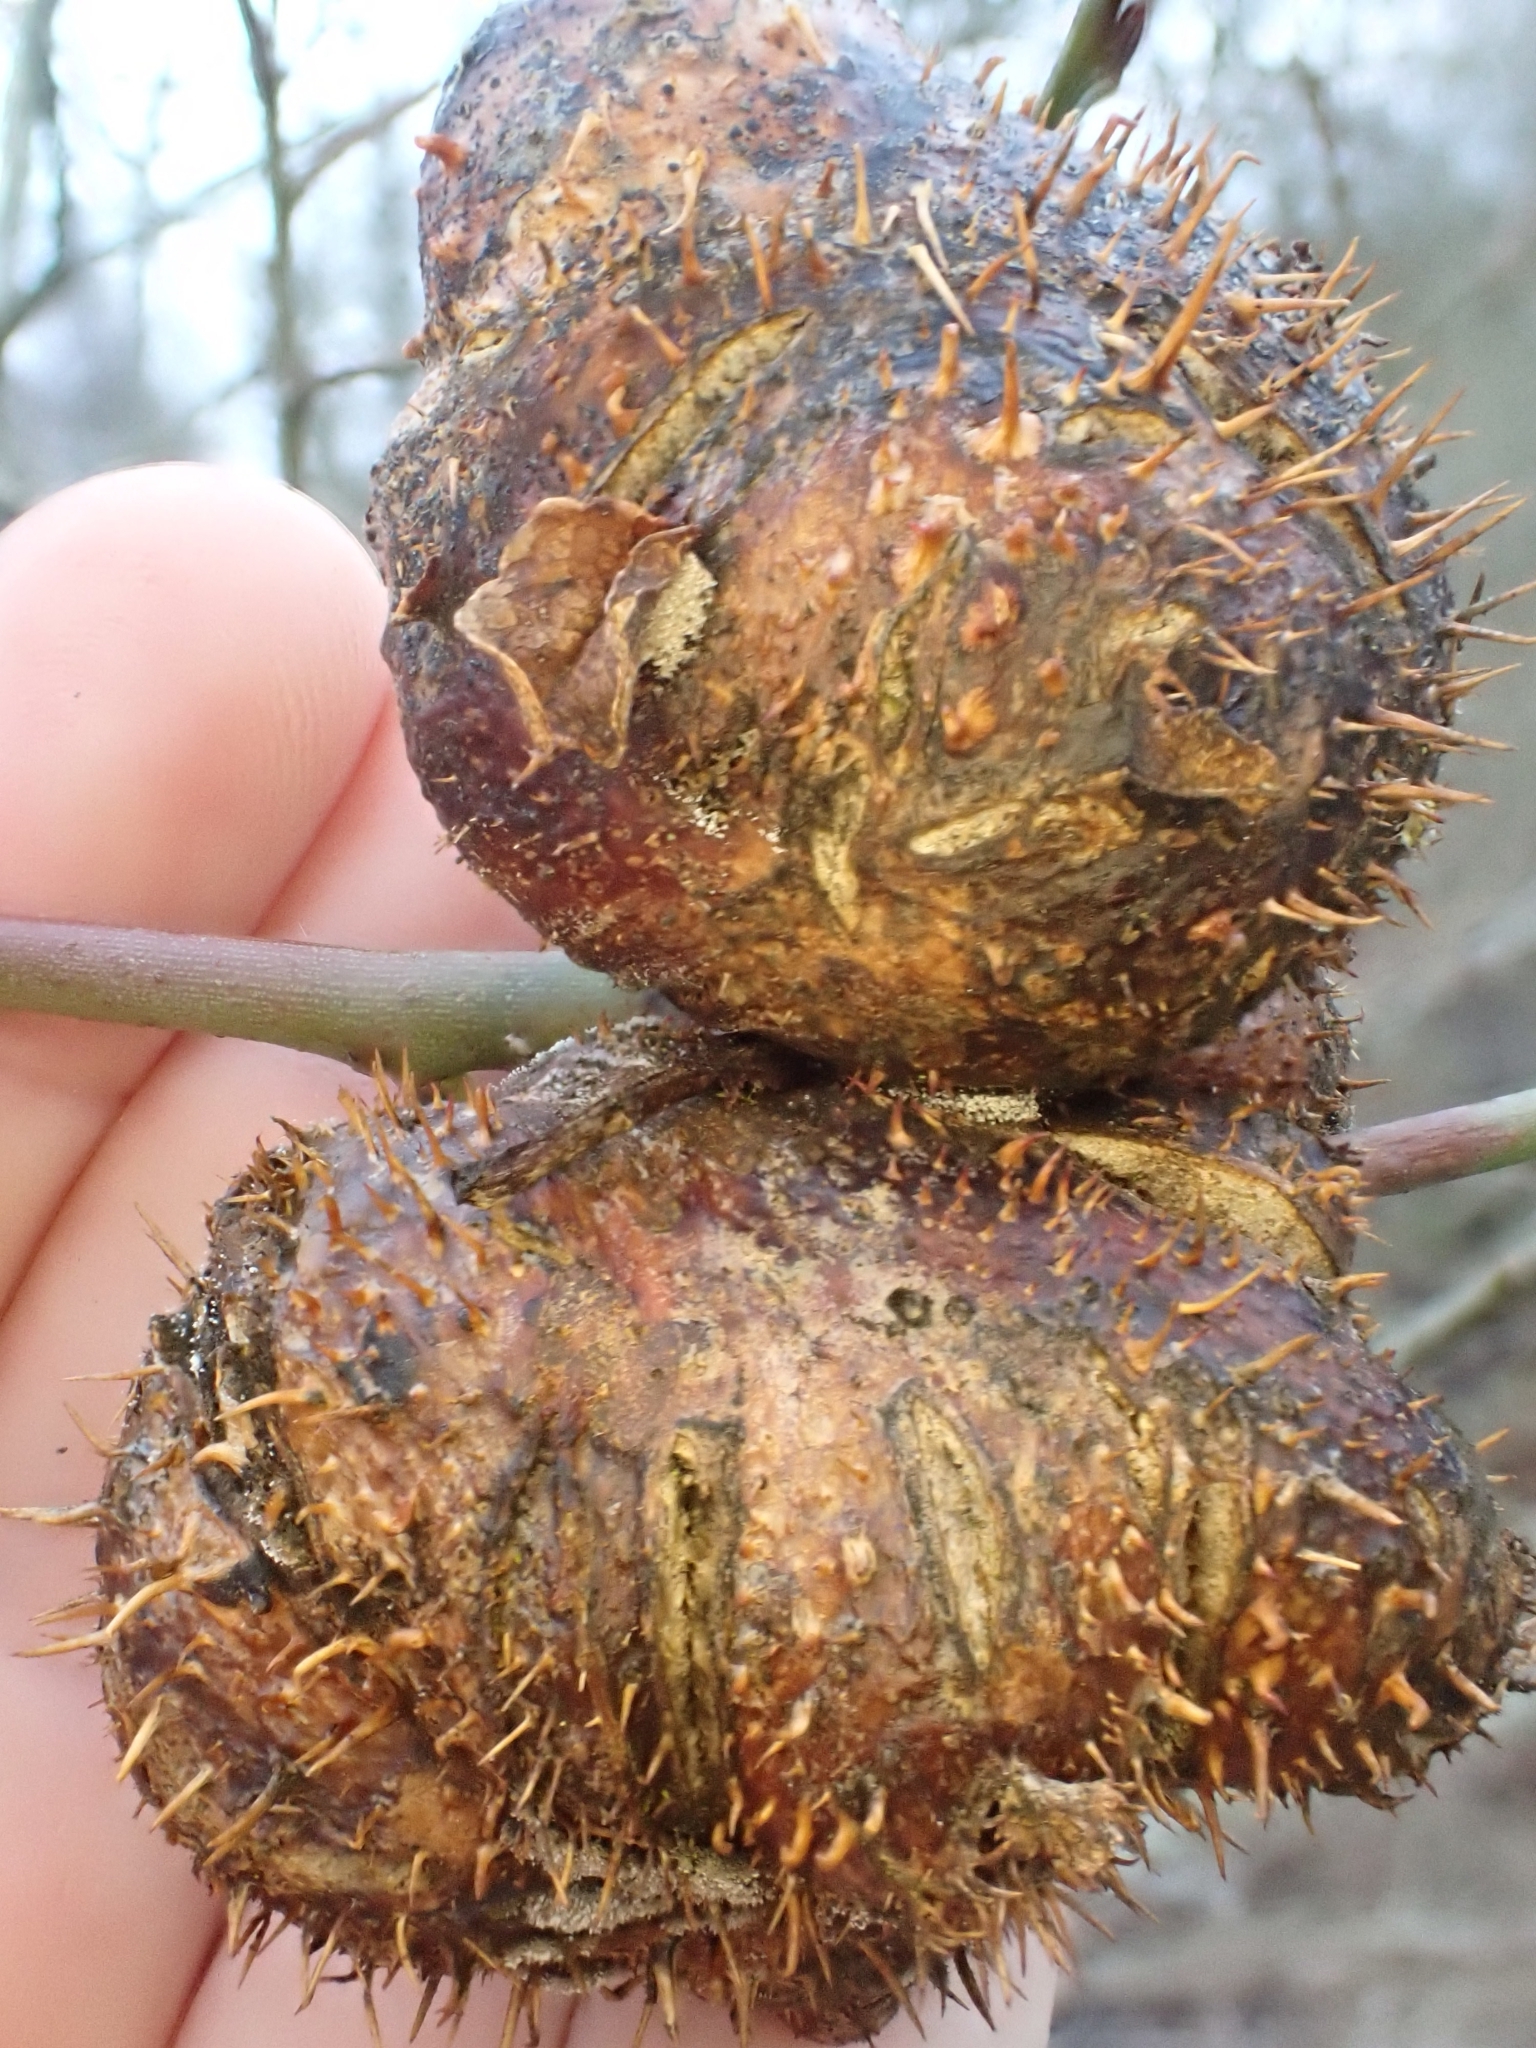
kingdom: Animalia
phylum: Arthropoda
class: Insecta
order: Hymenoptera
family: Cynipidae
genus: Diplolepis
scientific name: Diplolepis mayri
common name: Gall wasp
